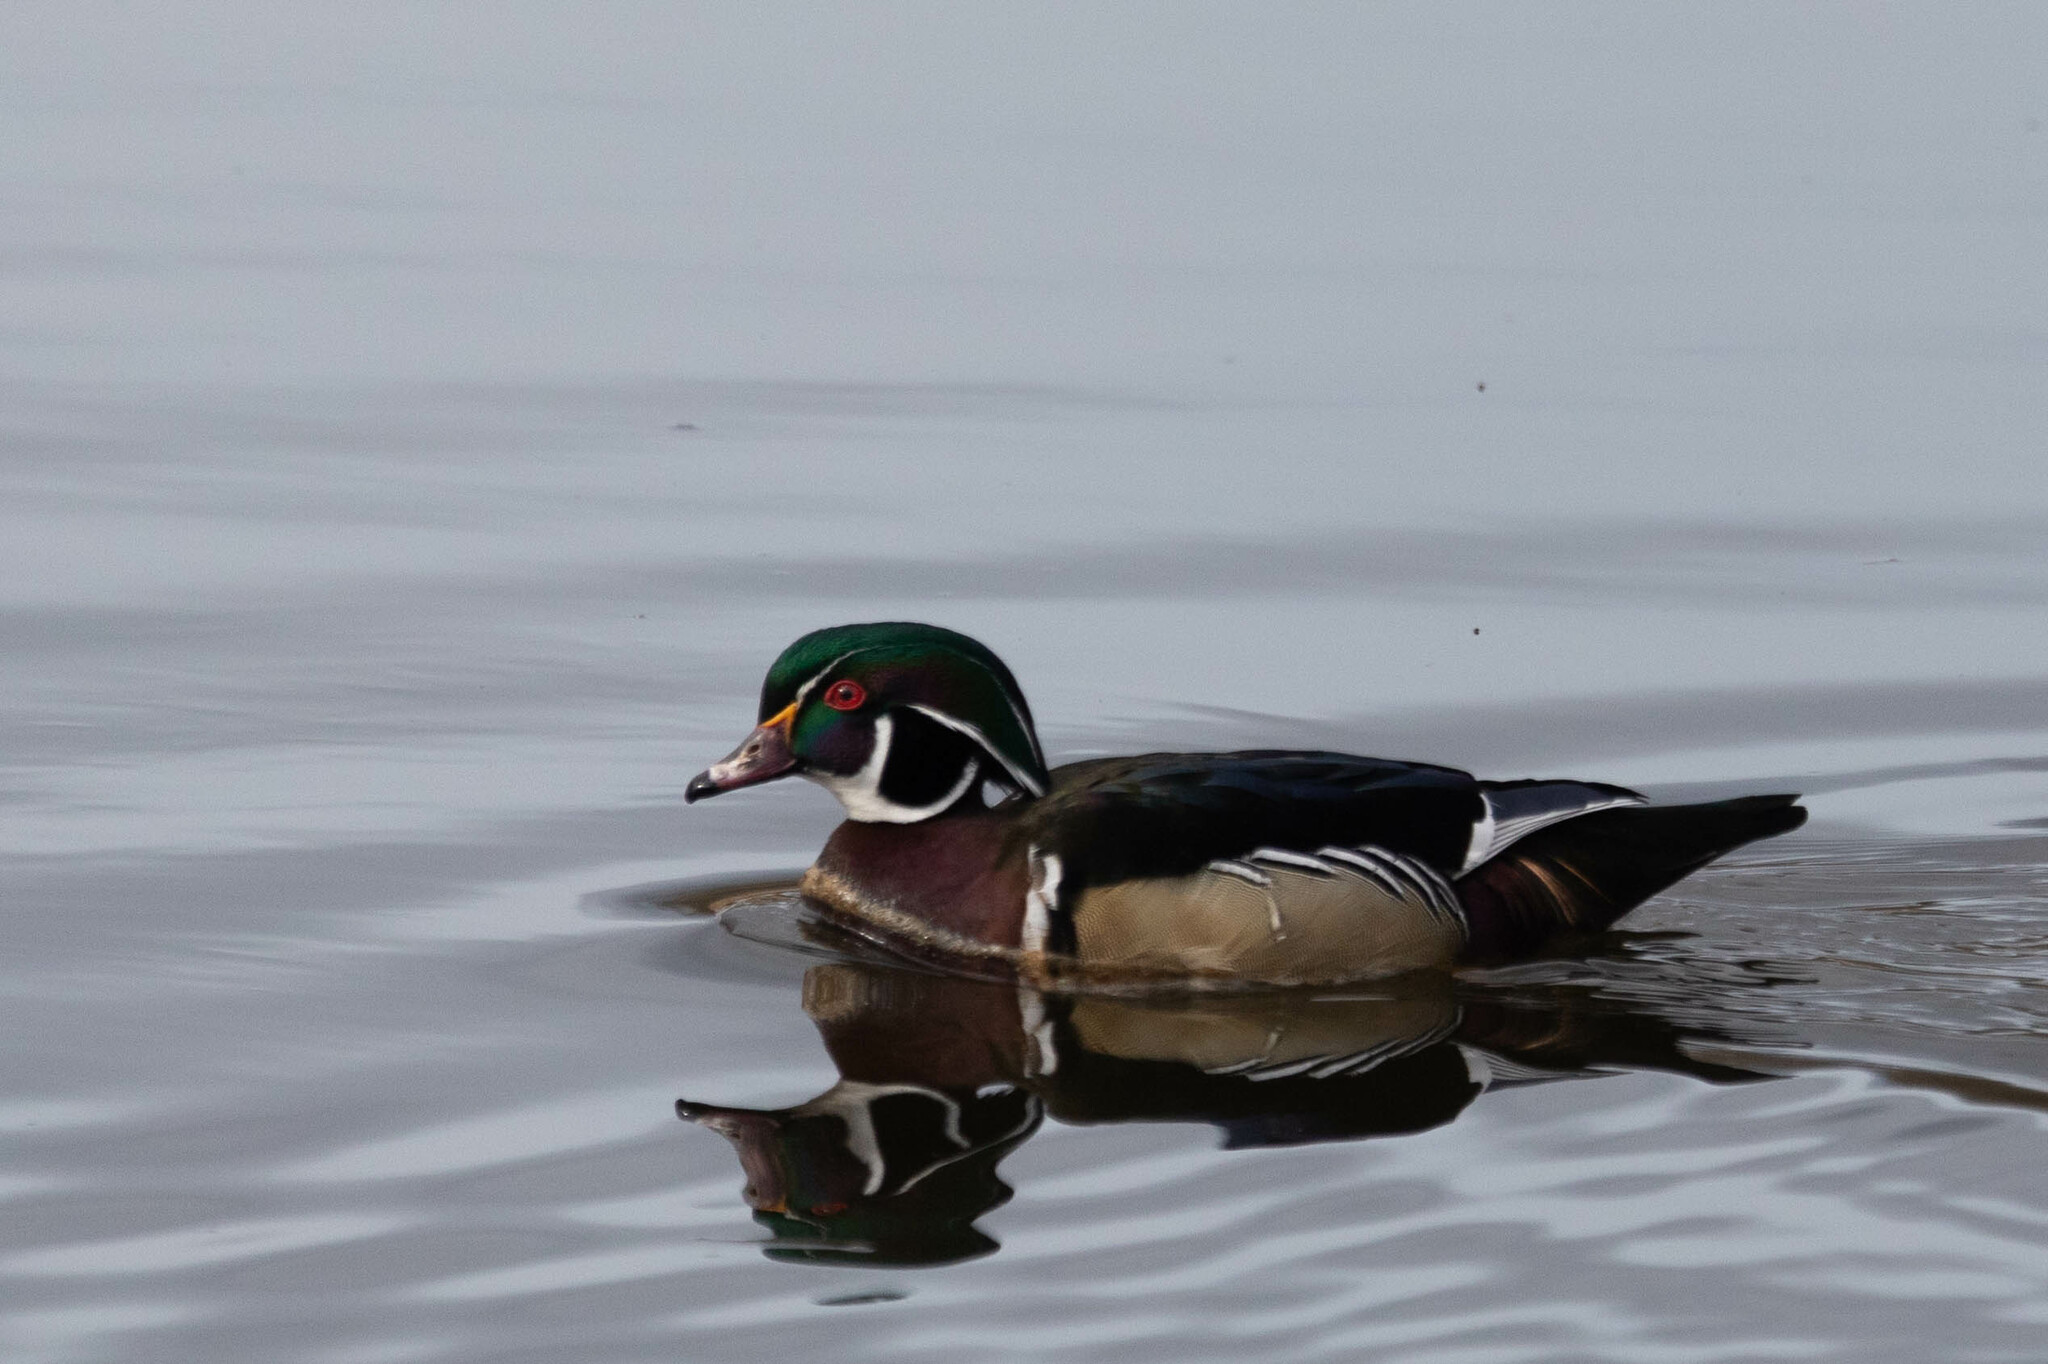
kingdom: Animalia
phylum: Chordata
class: Aves
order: Anseriformes
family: Anatidae
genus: Aix
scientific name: Aix sponsa
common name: Wood duck
